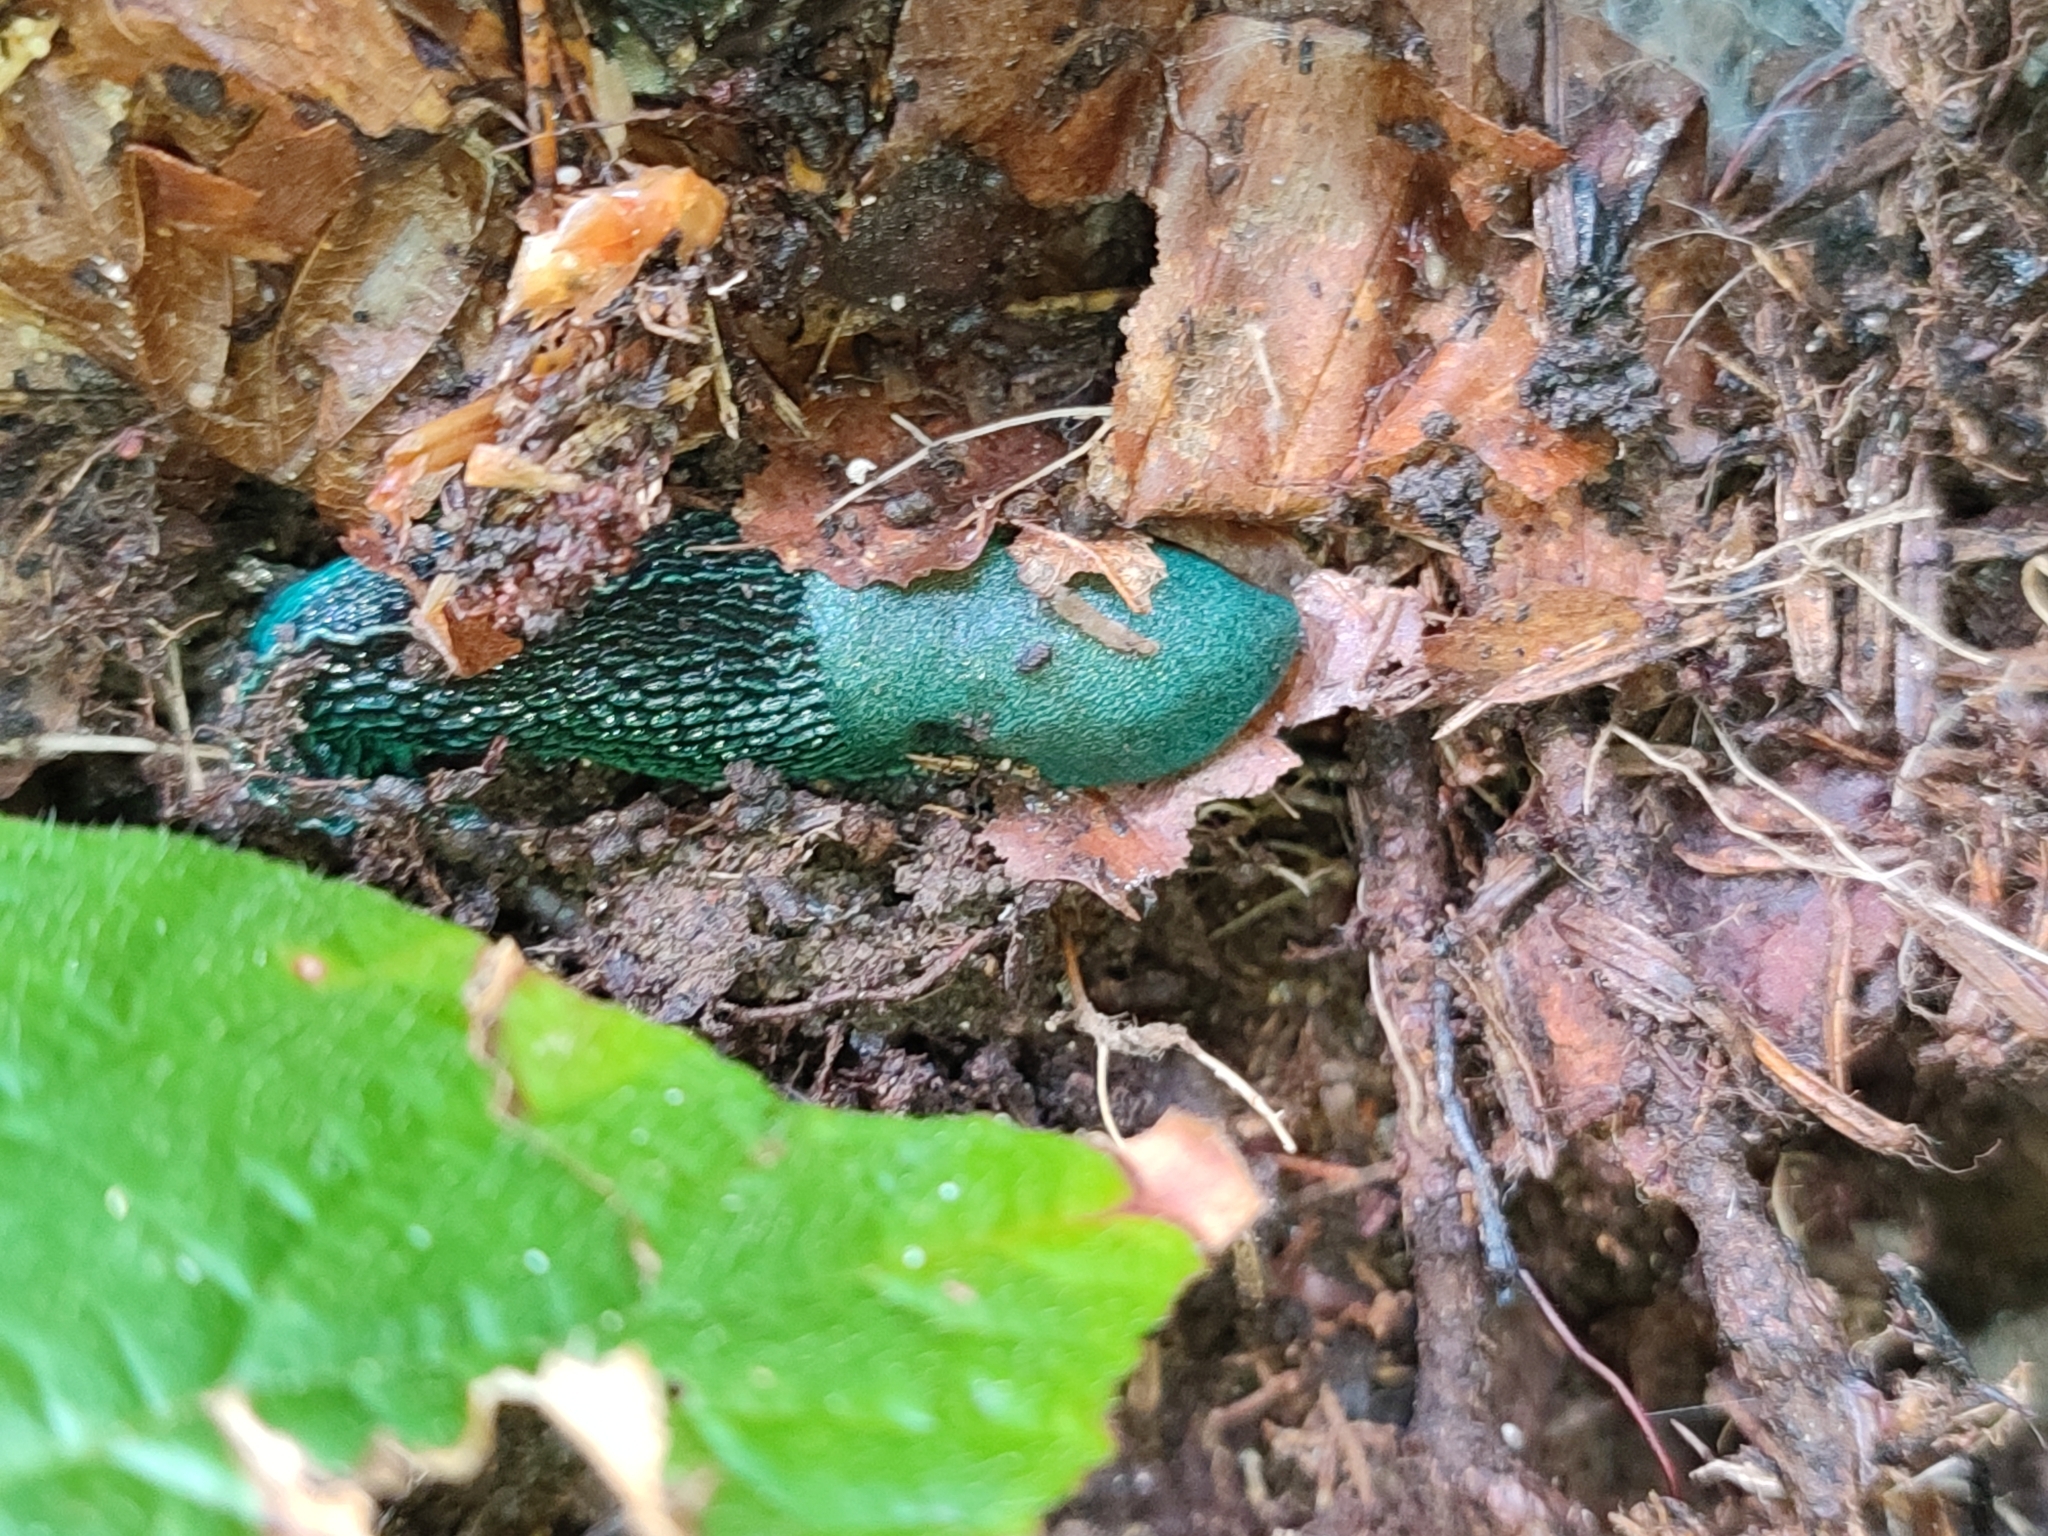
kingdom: Animalia
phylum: Mollusca
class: Gastropoda
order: Stylommatophora
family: Limacidae
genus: Bielzia
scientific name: Bielzia coerulans
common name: Carpathian blue slug
